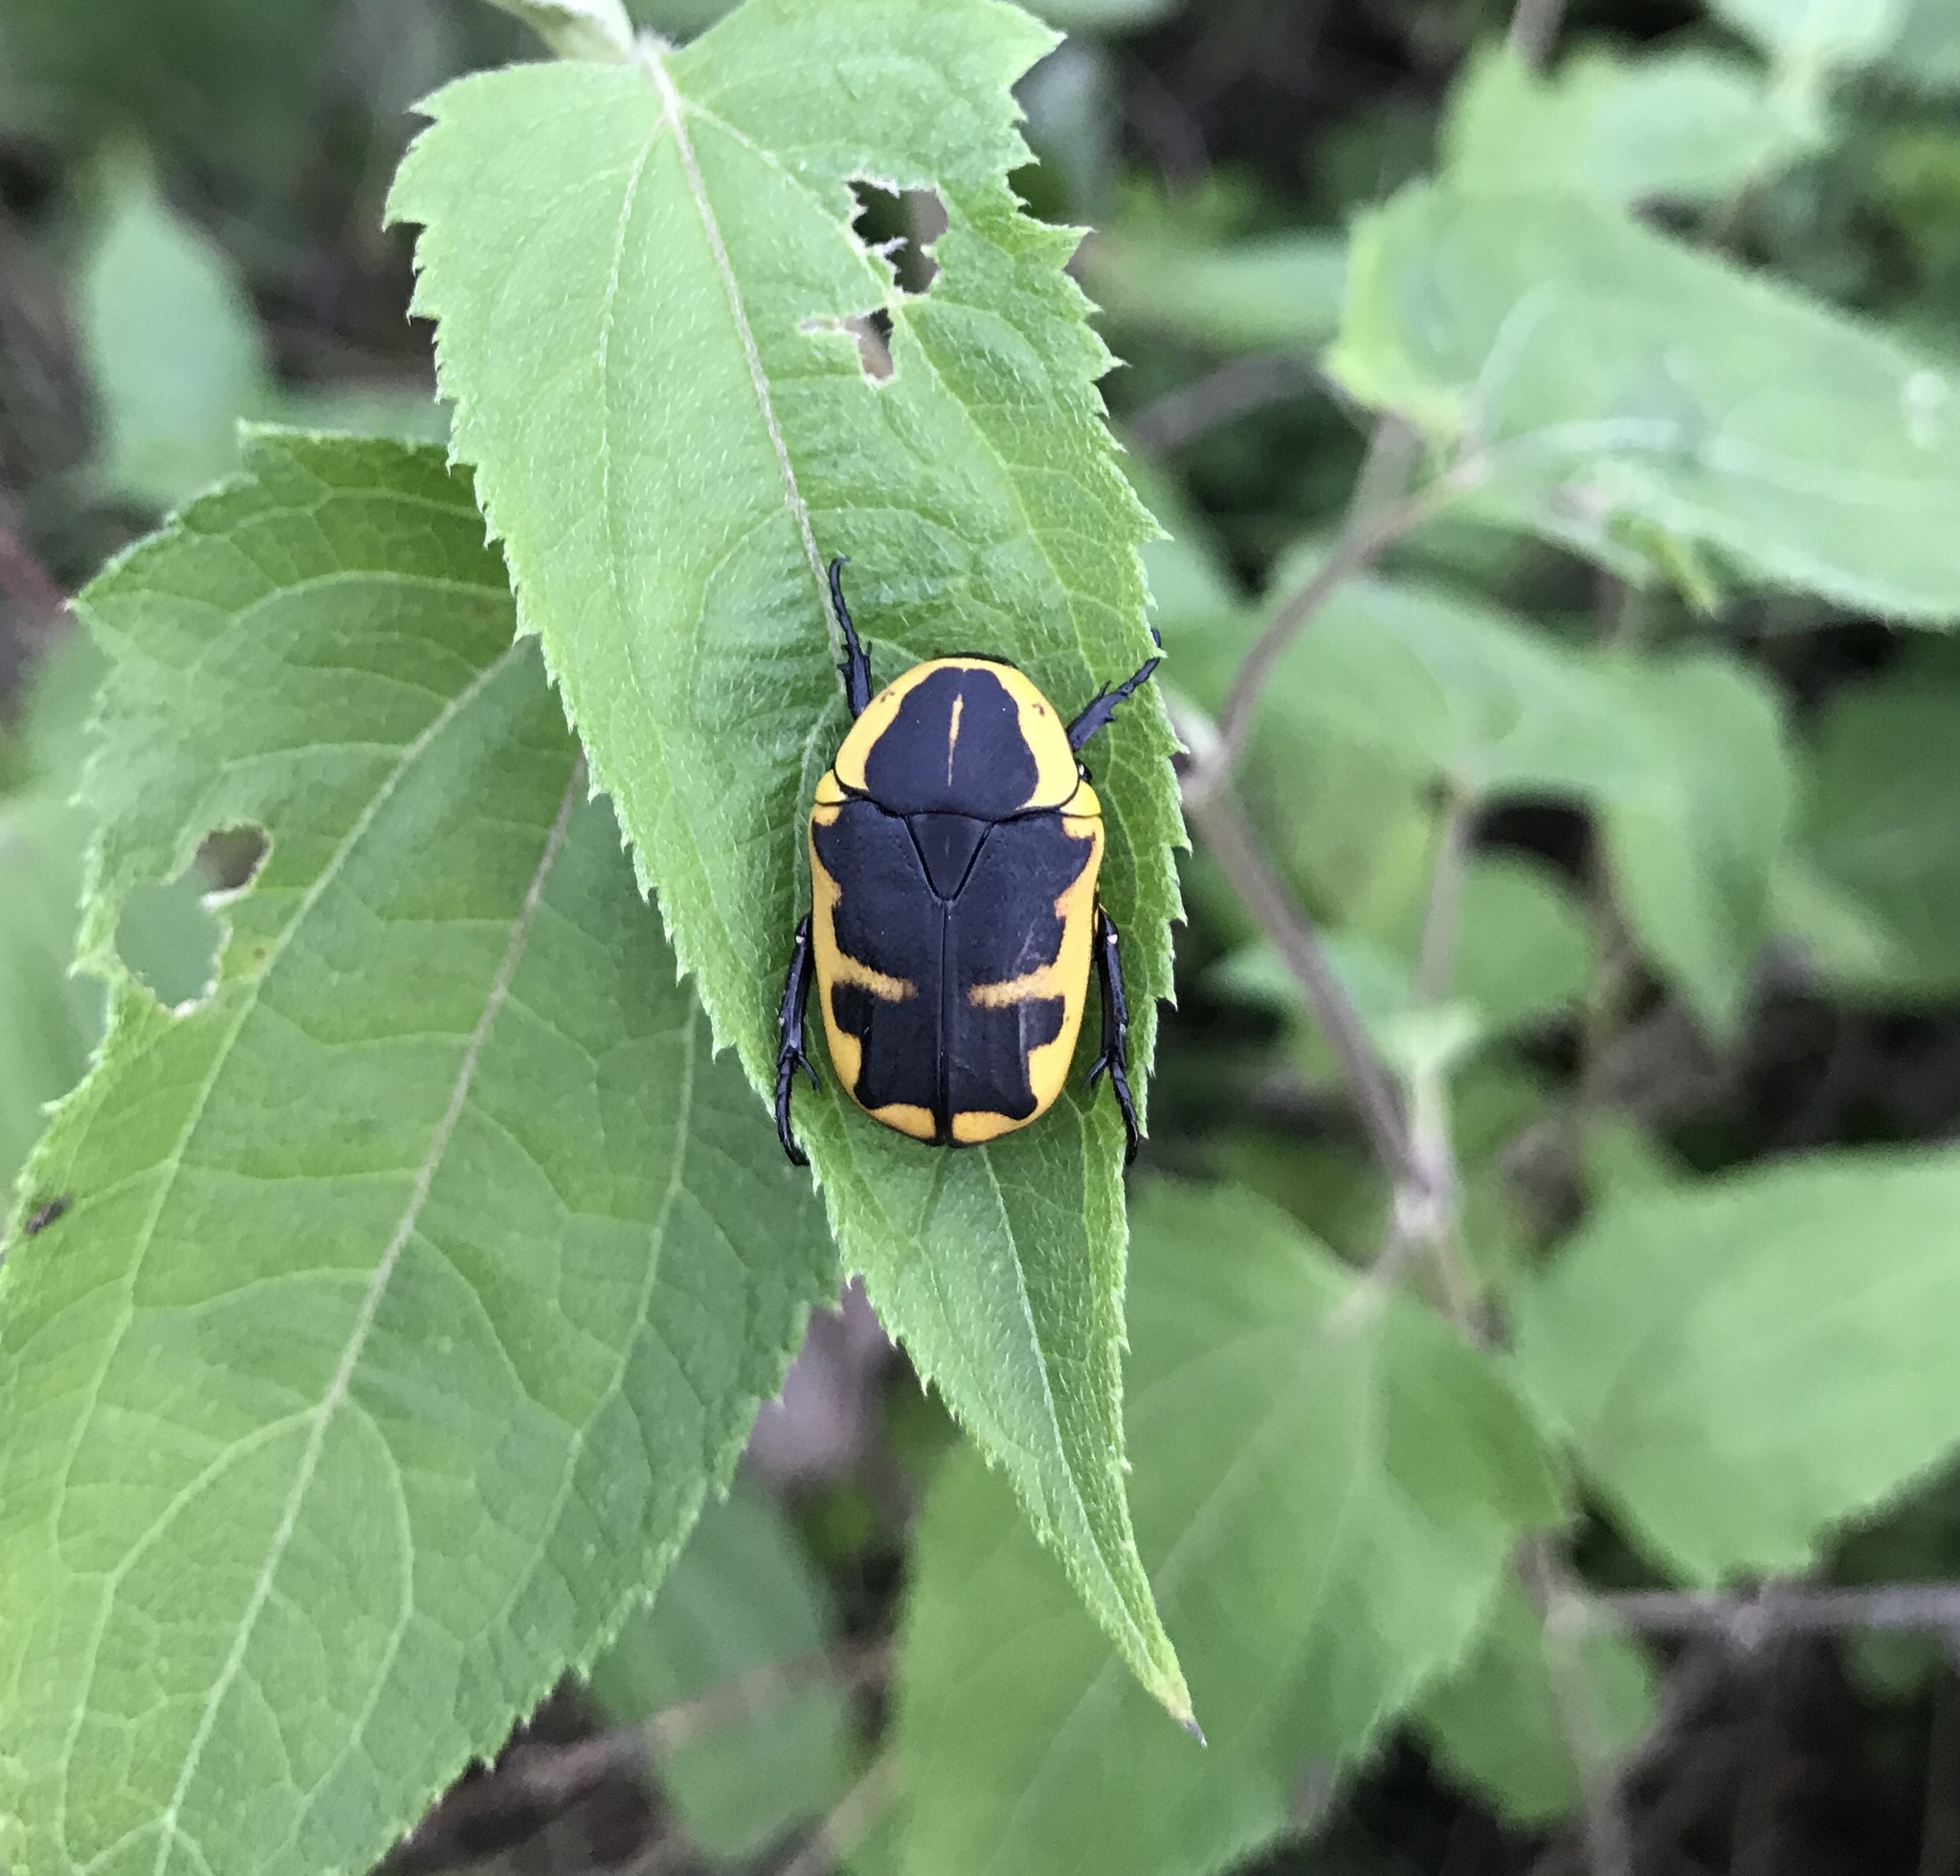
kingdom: Animalia
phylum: Arthropoda
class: Insecta
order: Coleoptera
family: Scarabaeidae
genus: Pachnoda
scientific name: Pachnoda tridentata
